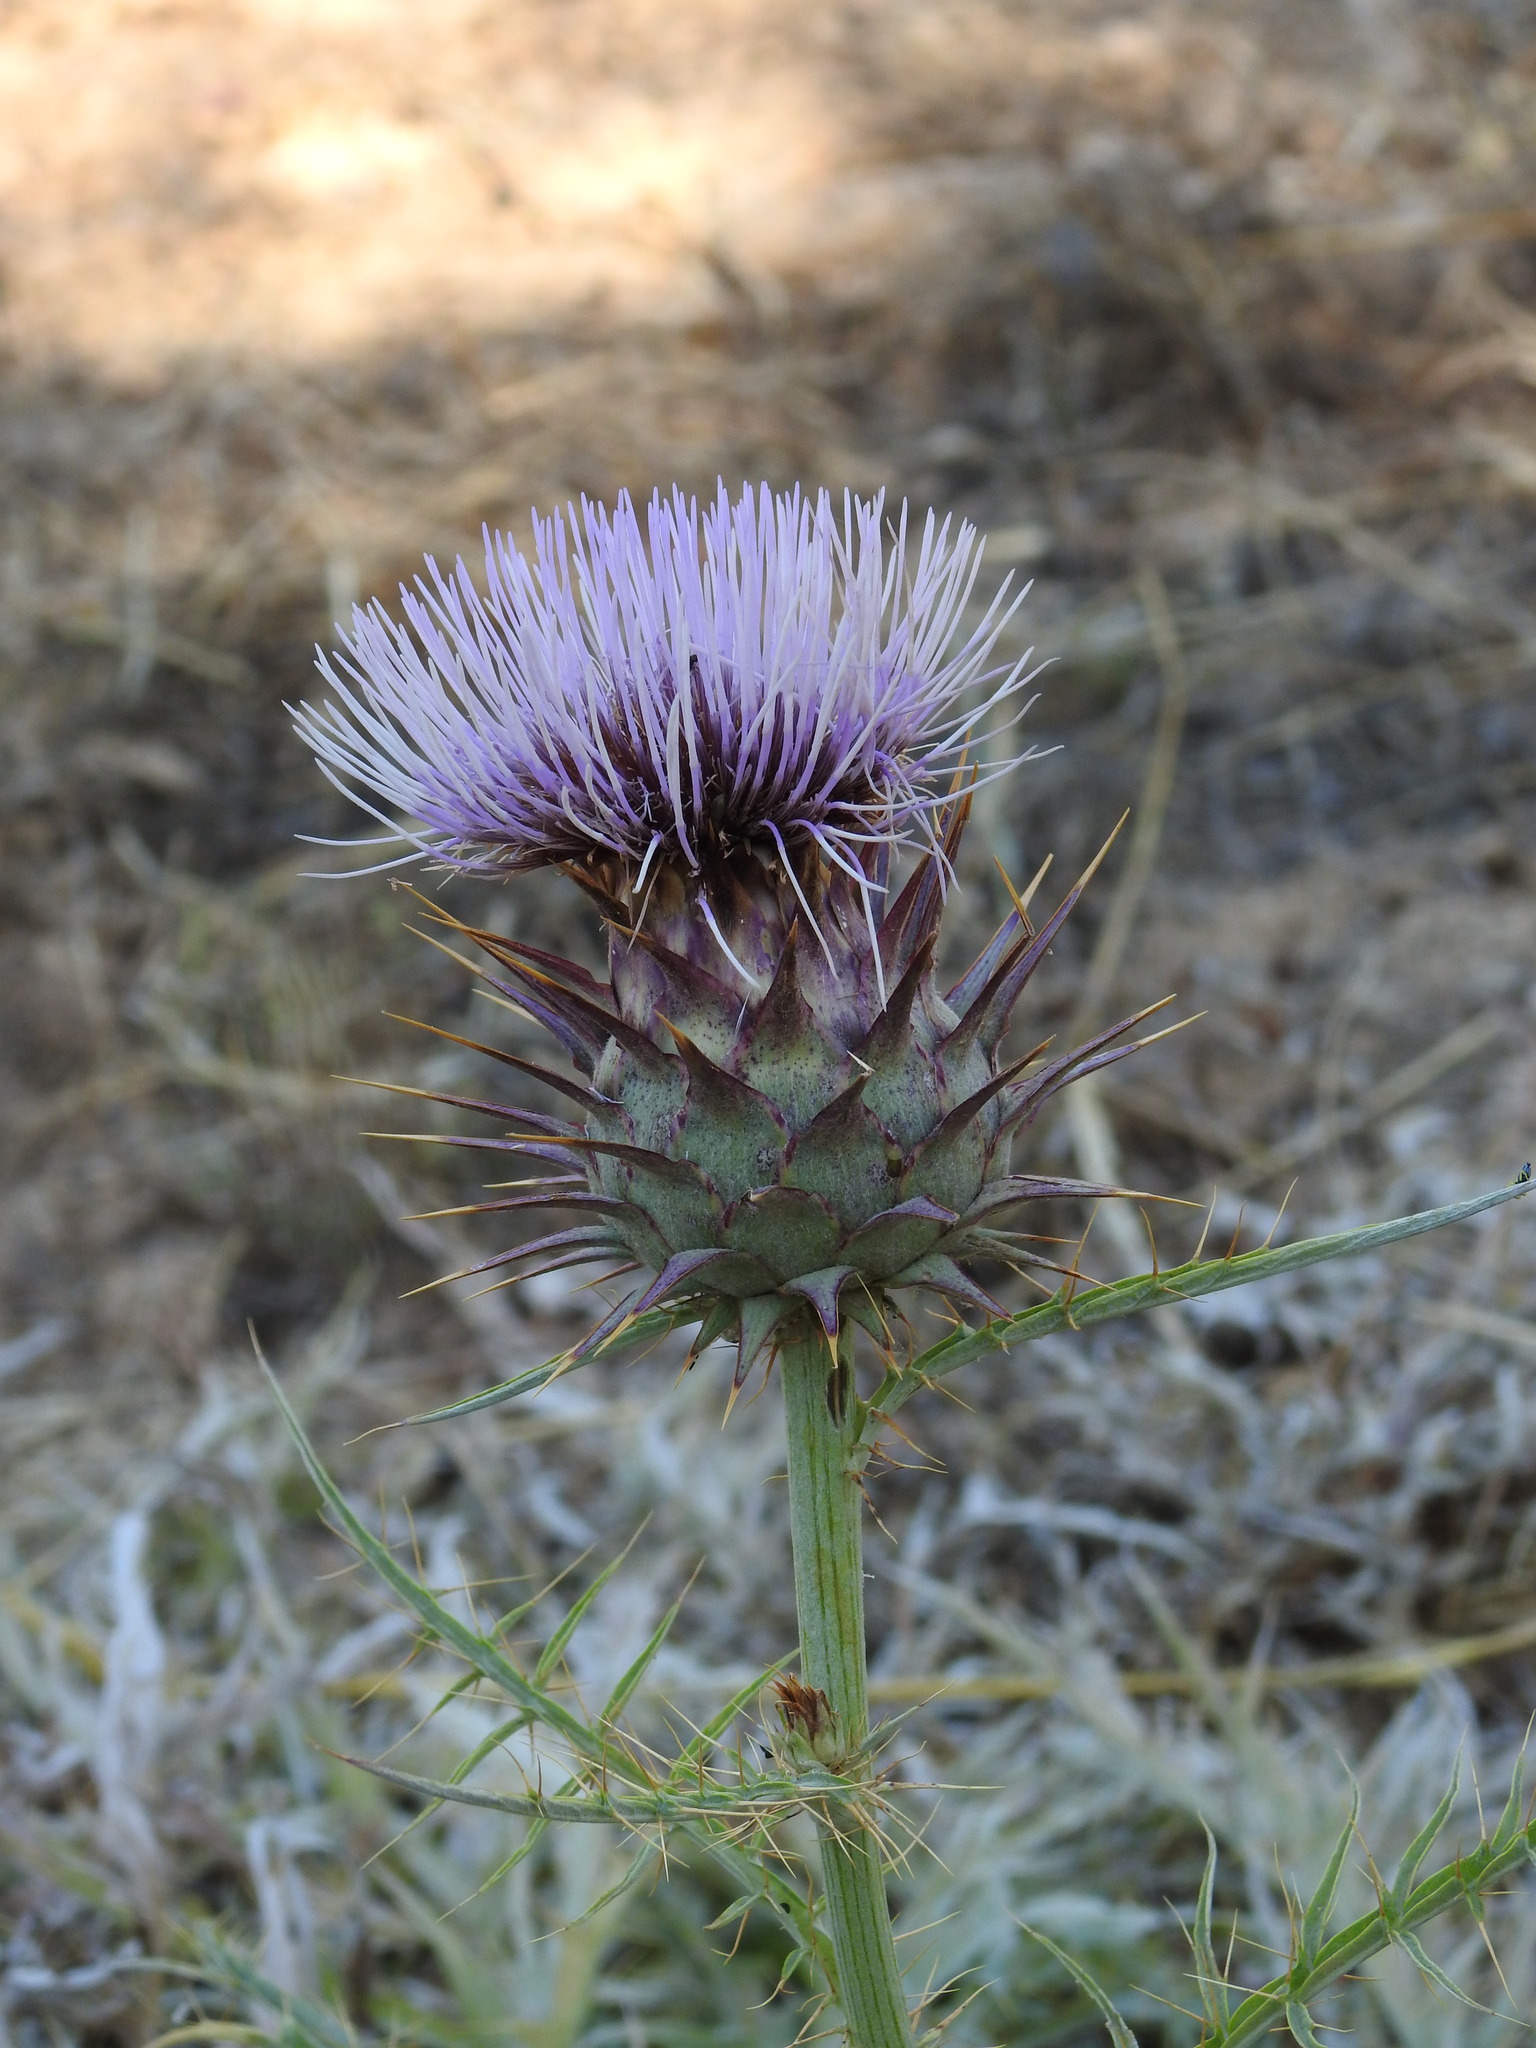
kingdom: Plantae
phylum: Tracheophyta
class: Magnoliopsida
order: Asterales
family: Asteraceae
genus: Cynara
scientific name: Cynara cardunculus
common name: Globe artichoke
